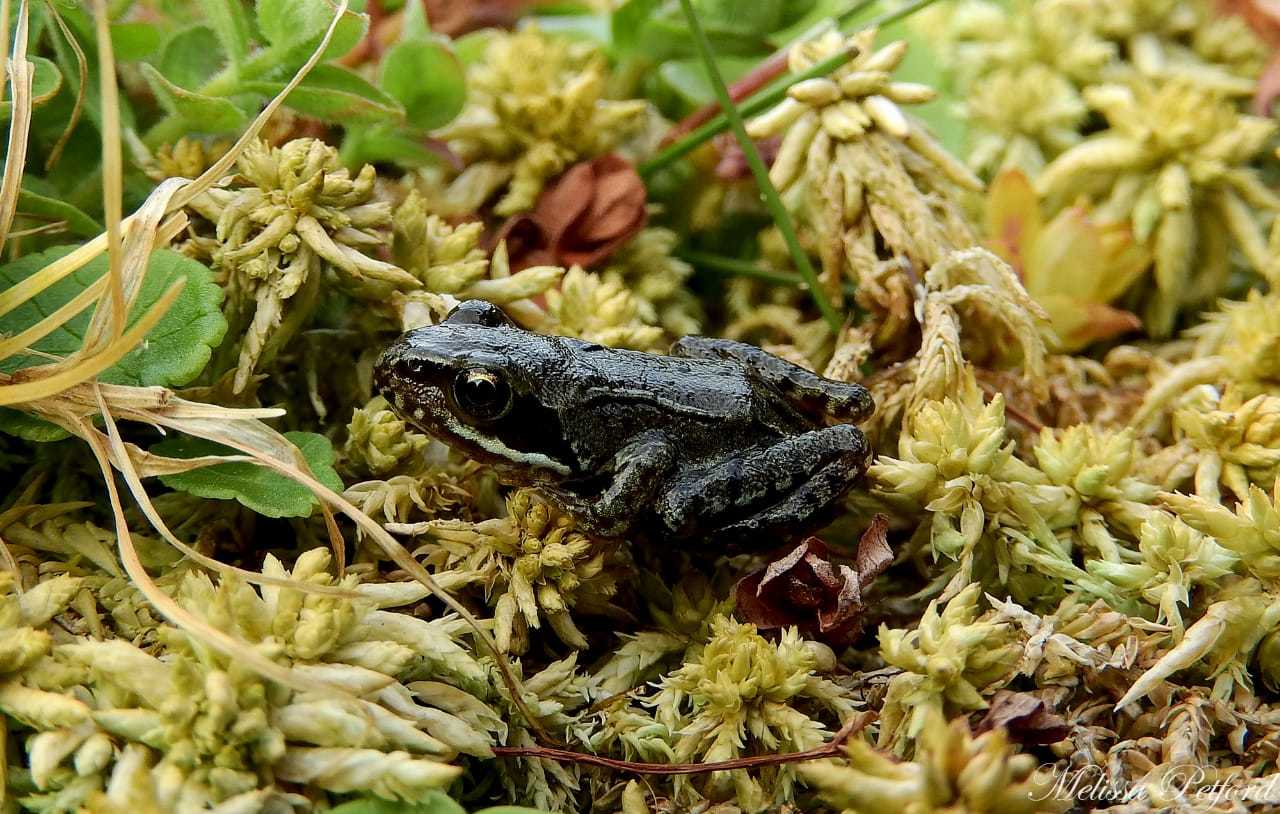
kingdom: Animalia
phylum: Chordata
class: Amphibia
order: Anura
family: Ranidae
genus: Rana
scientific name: Rana temporaria
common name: Common frog
